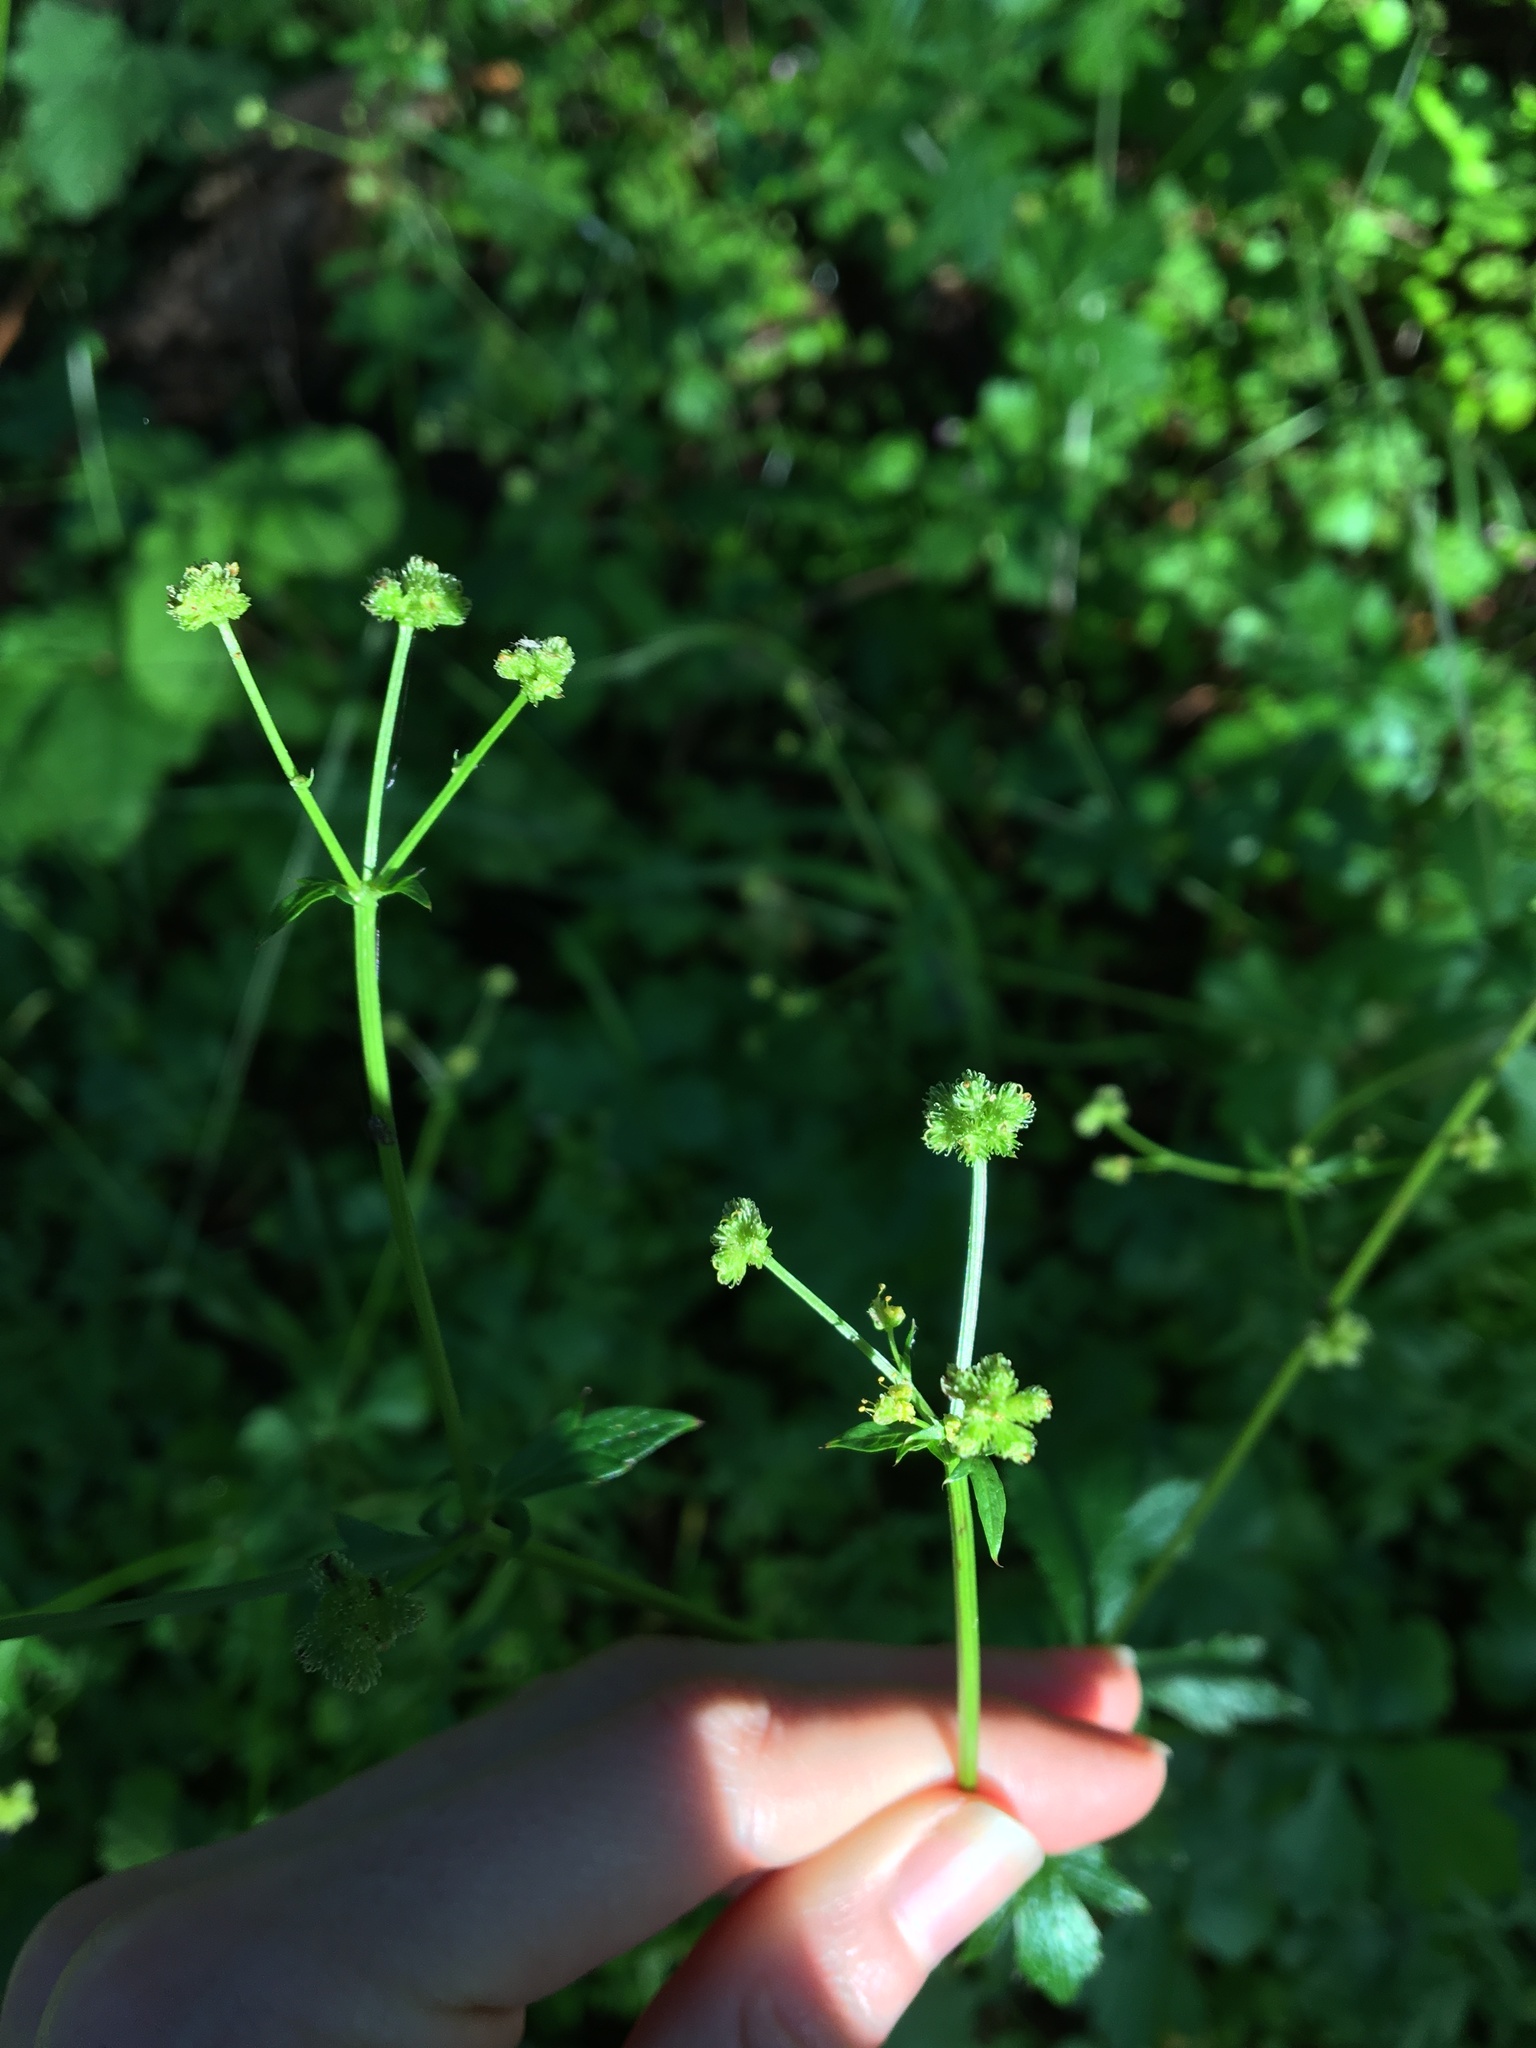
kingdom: Plantae
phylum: Tracheophyta
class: Magnoliopsida
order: Apiales
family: Apiaceae
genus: Sanicula
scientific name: Sanicula crassicaulis
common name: Western snakeroot
